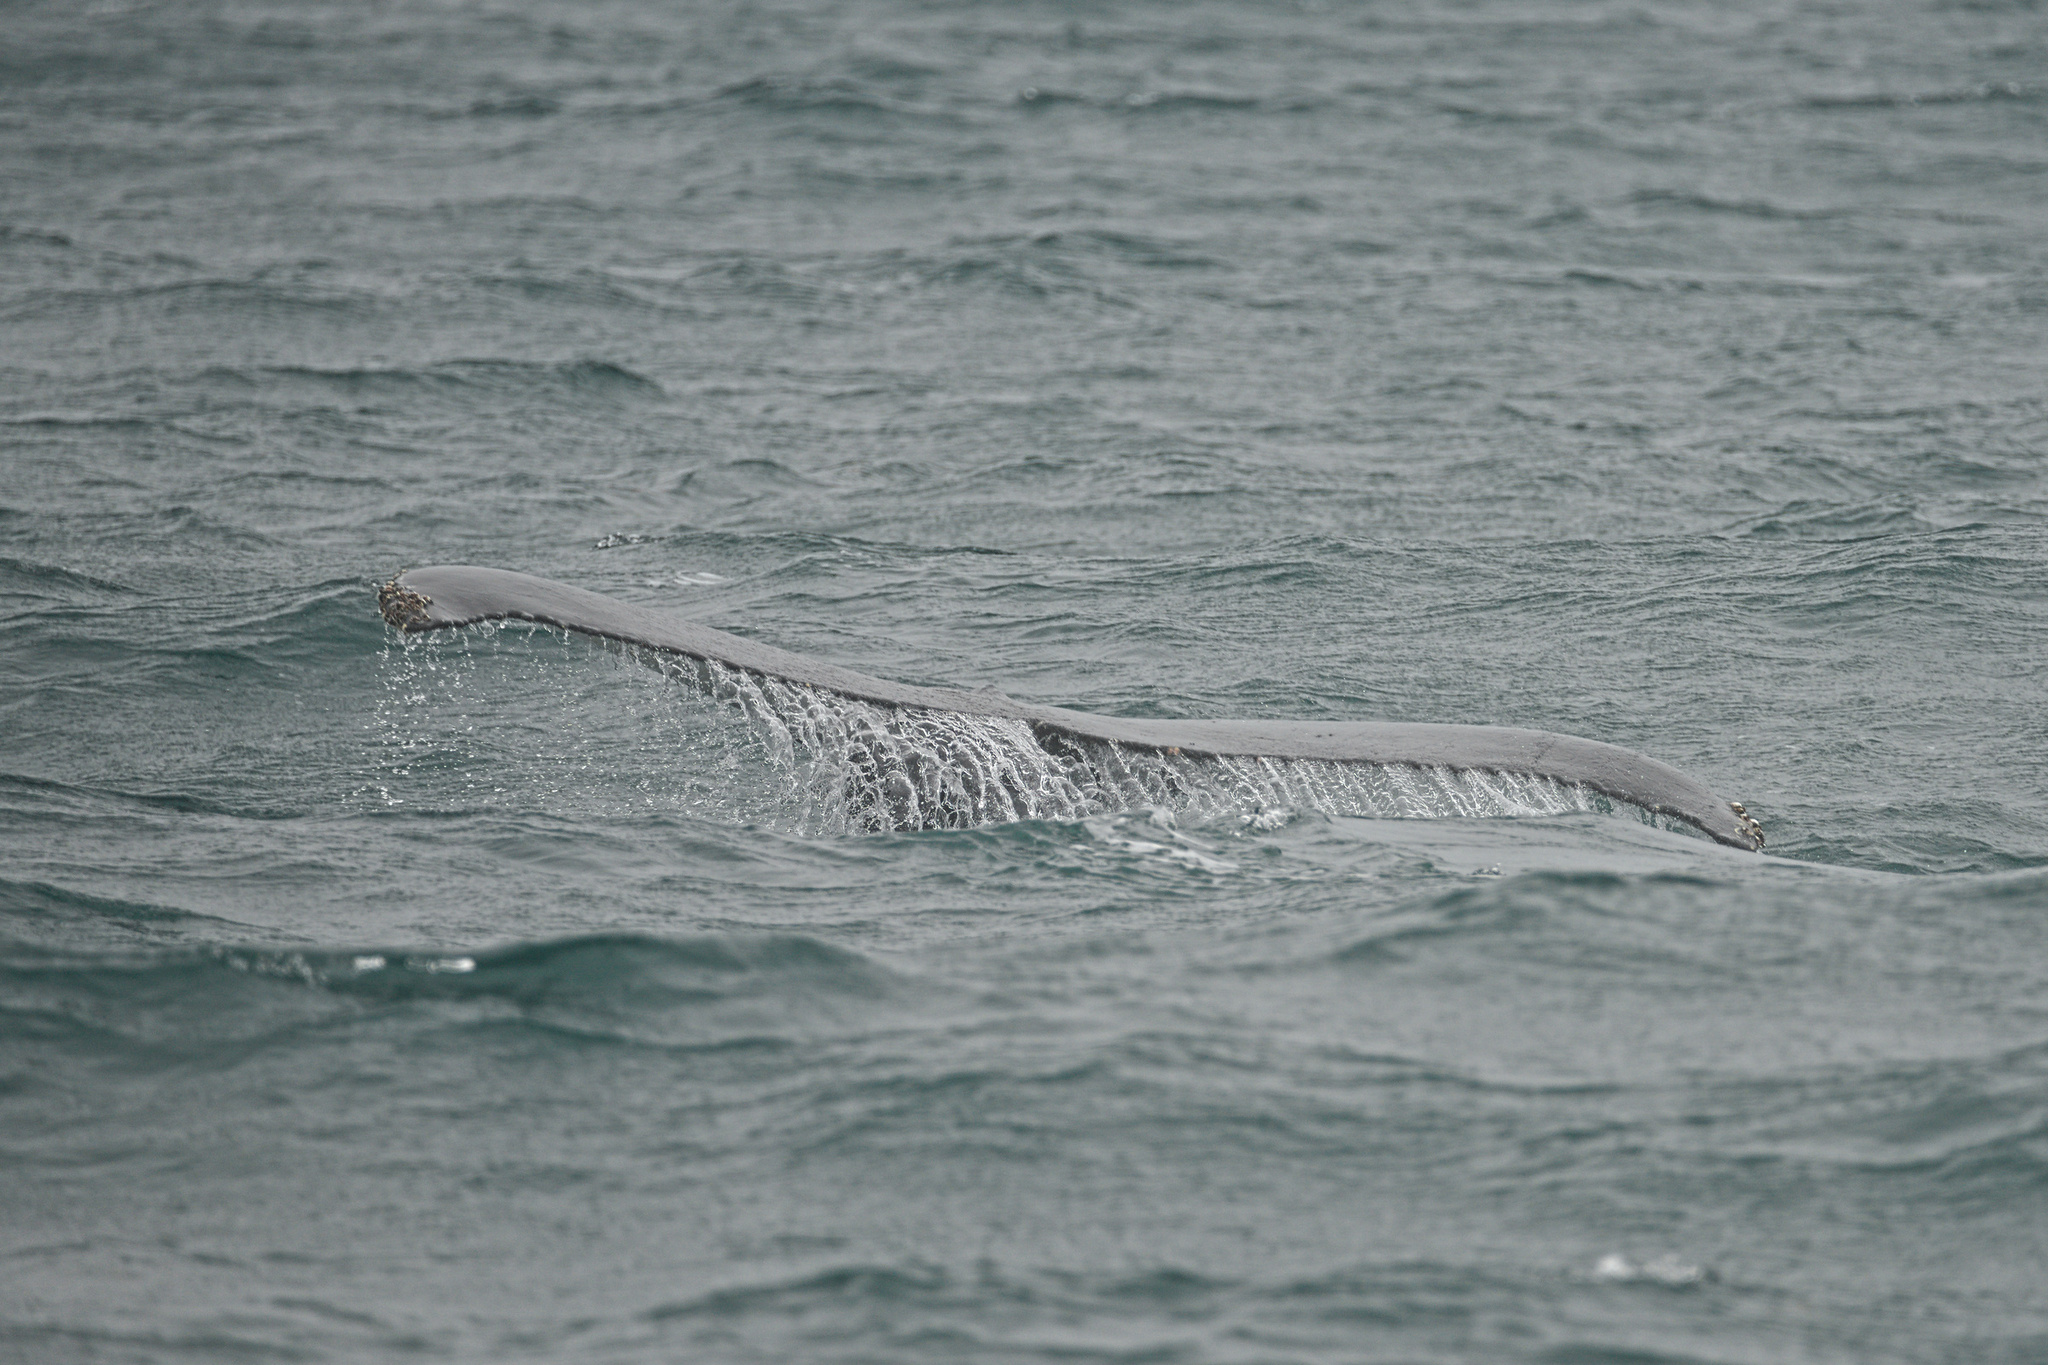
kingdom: Animalia
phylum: Chordata
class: Mammalia
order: Cetacea
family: Balaenopteridae
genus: Megaptera
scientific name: Megaptera novaeangliae
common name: Humpback whale
